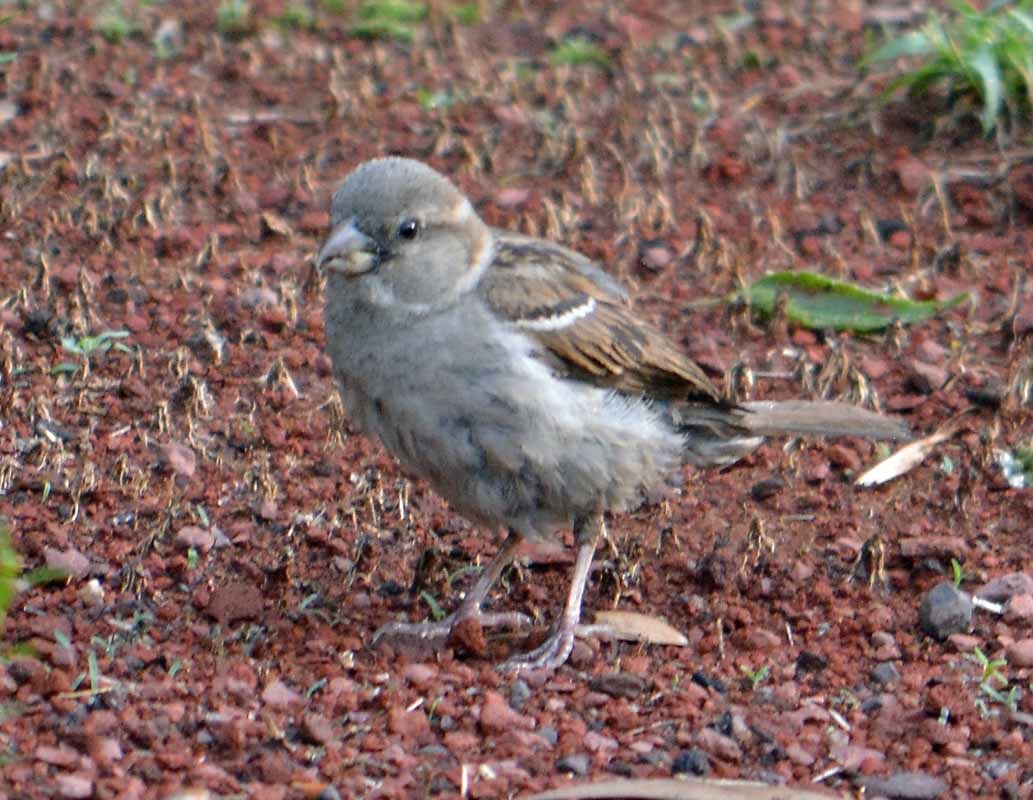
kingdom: Animalia
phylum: Chordata
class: Aves
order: Passeriformes
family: Passeridae
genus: Passer
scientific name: Passer domesticus
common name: House sparrow
